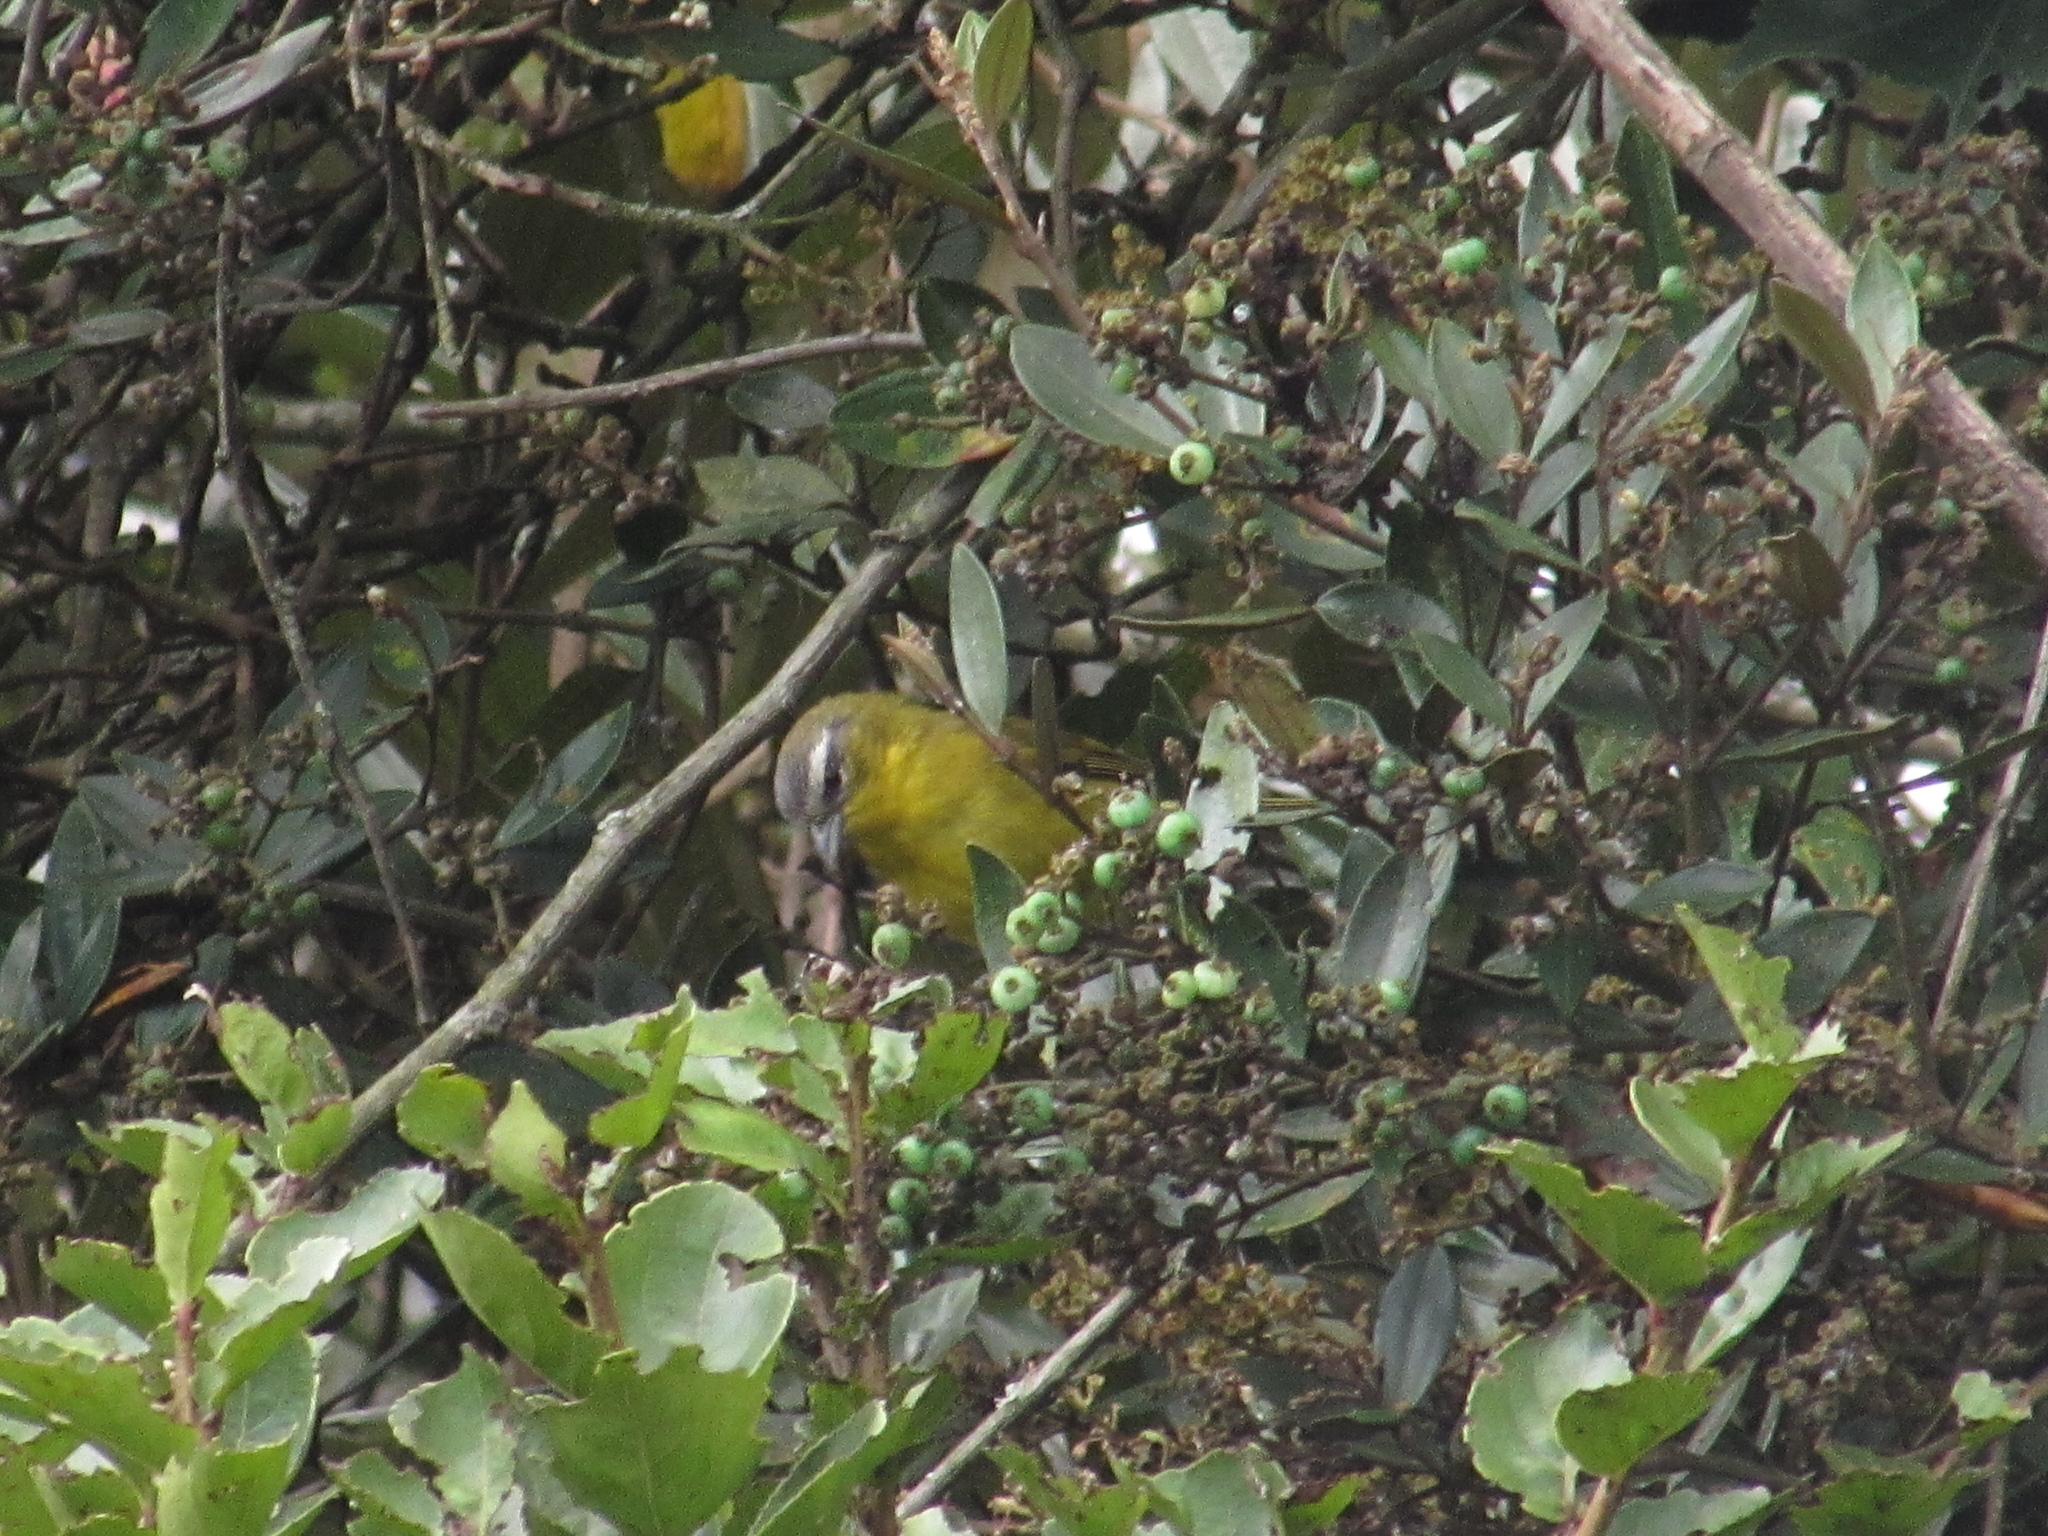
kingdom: Animalia
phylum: Chordata
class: Aves
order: Passeriformes
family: Thraupidae
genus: Thlypopsis
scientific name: Thlypopsis superciliaris
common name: Superciliaried hemispingus
